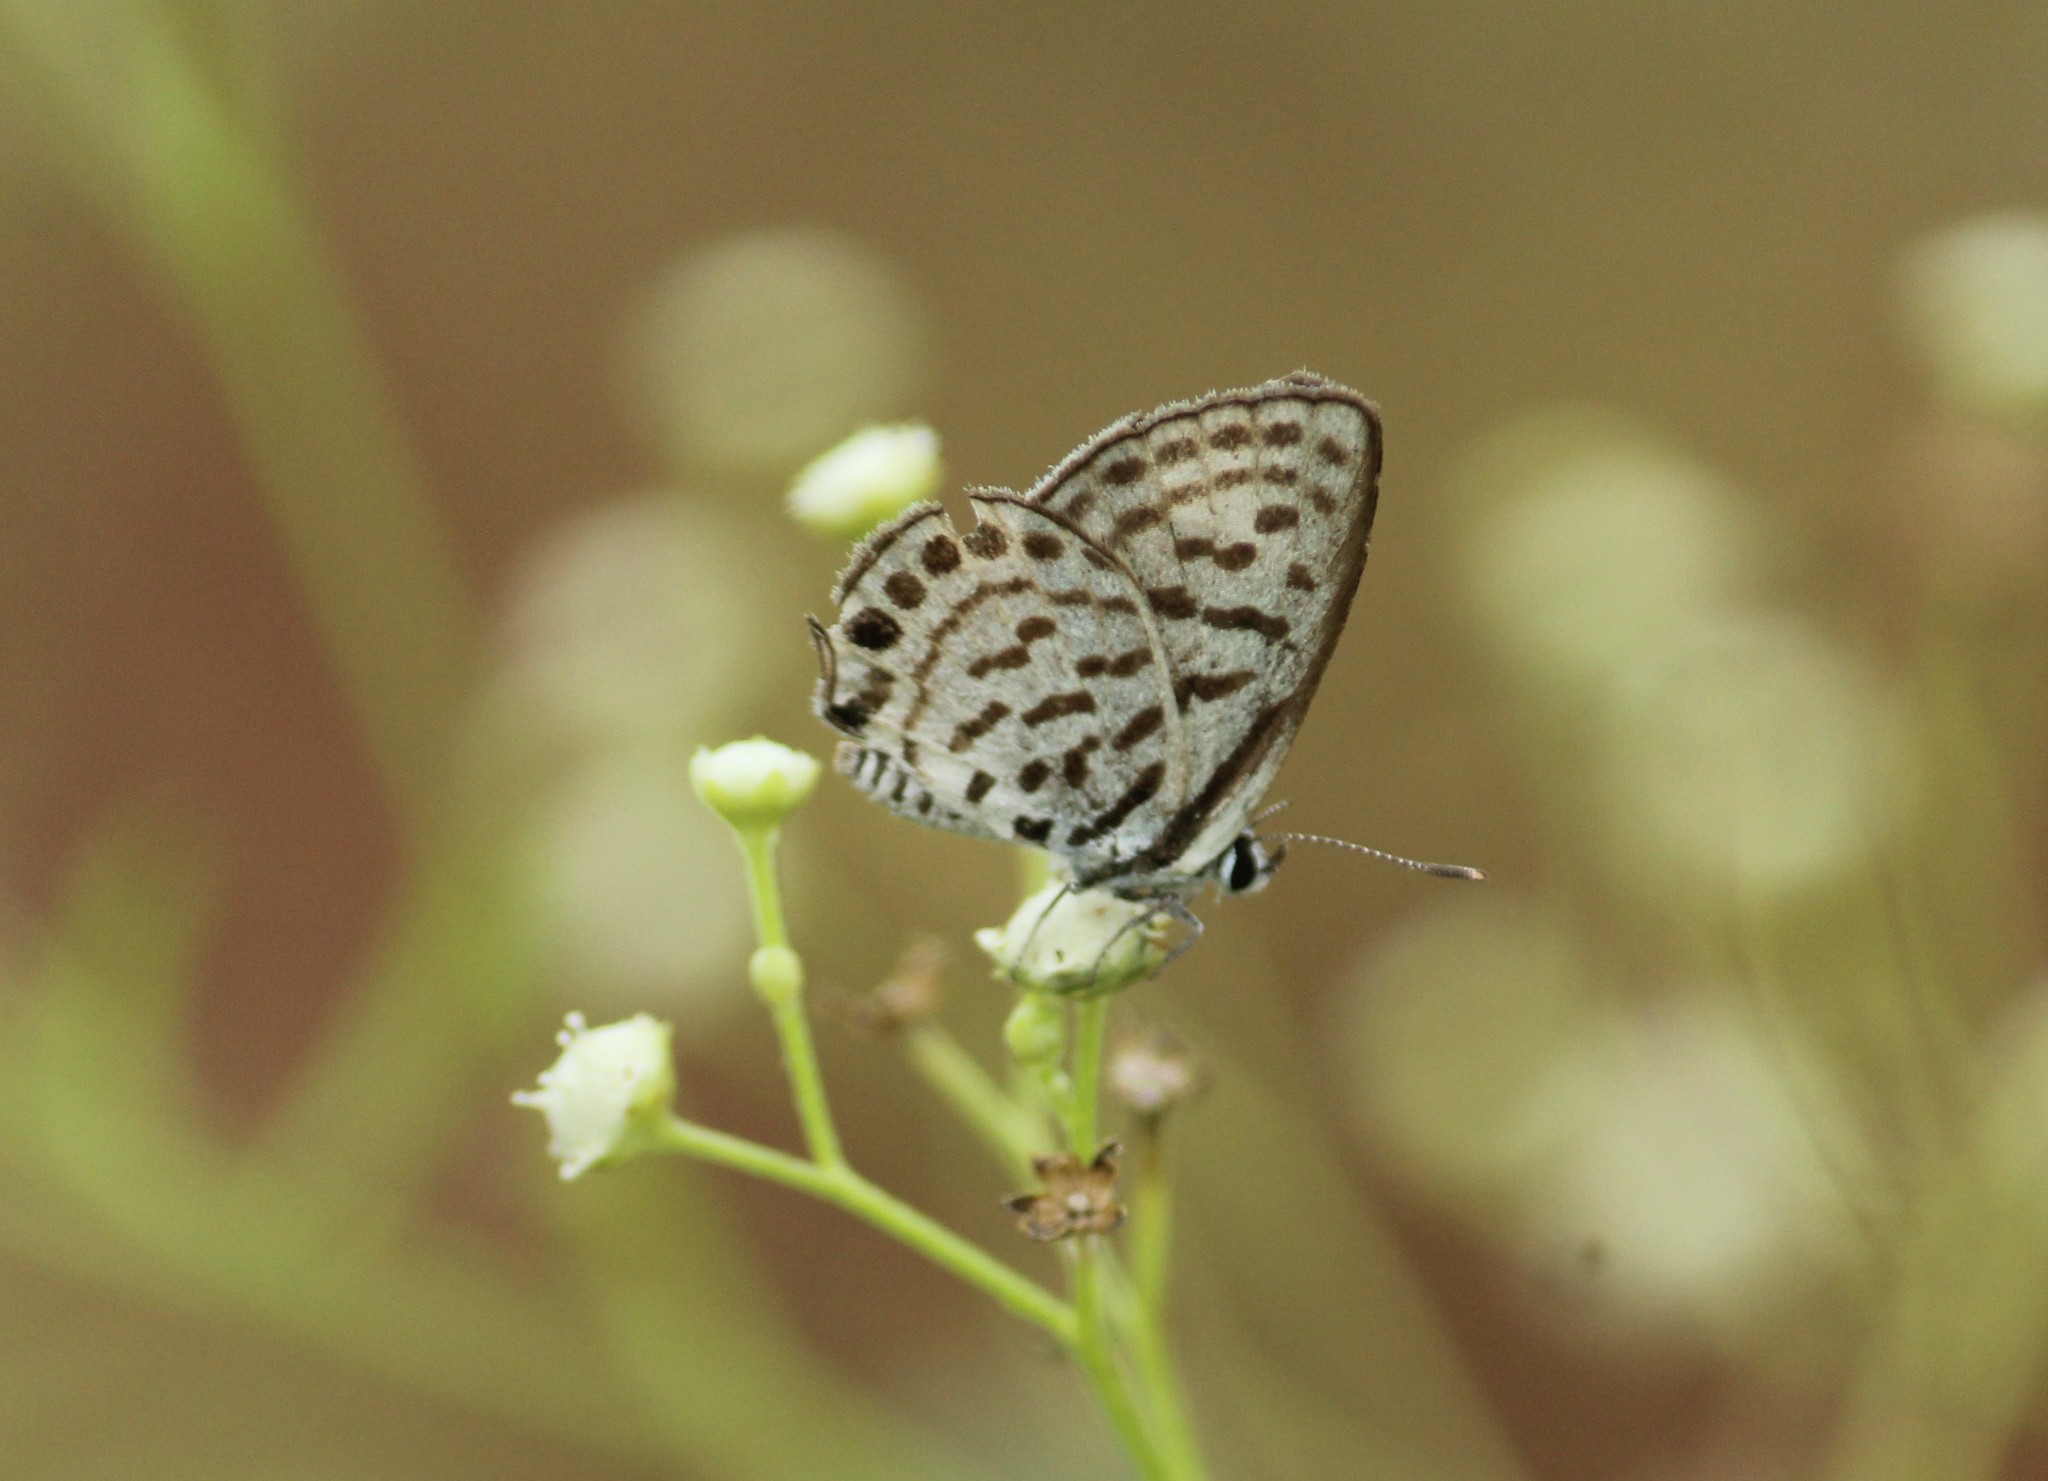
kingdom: Animalia
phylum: Arthropoda
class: Insecta
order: Lepidoptera
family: Lycaenidae
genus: Tarucus
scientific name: Tarucus balkanica
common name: Little tiger blue
